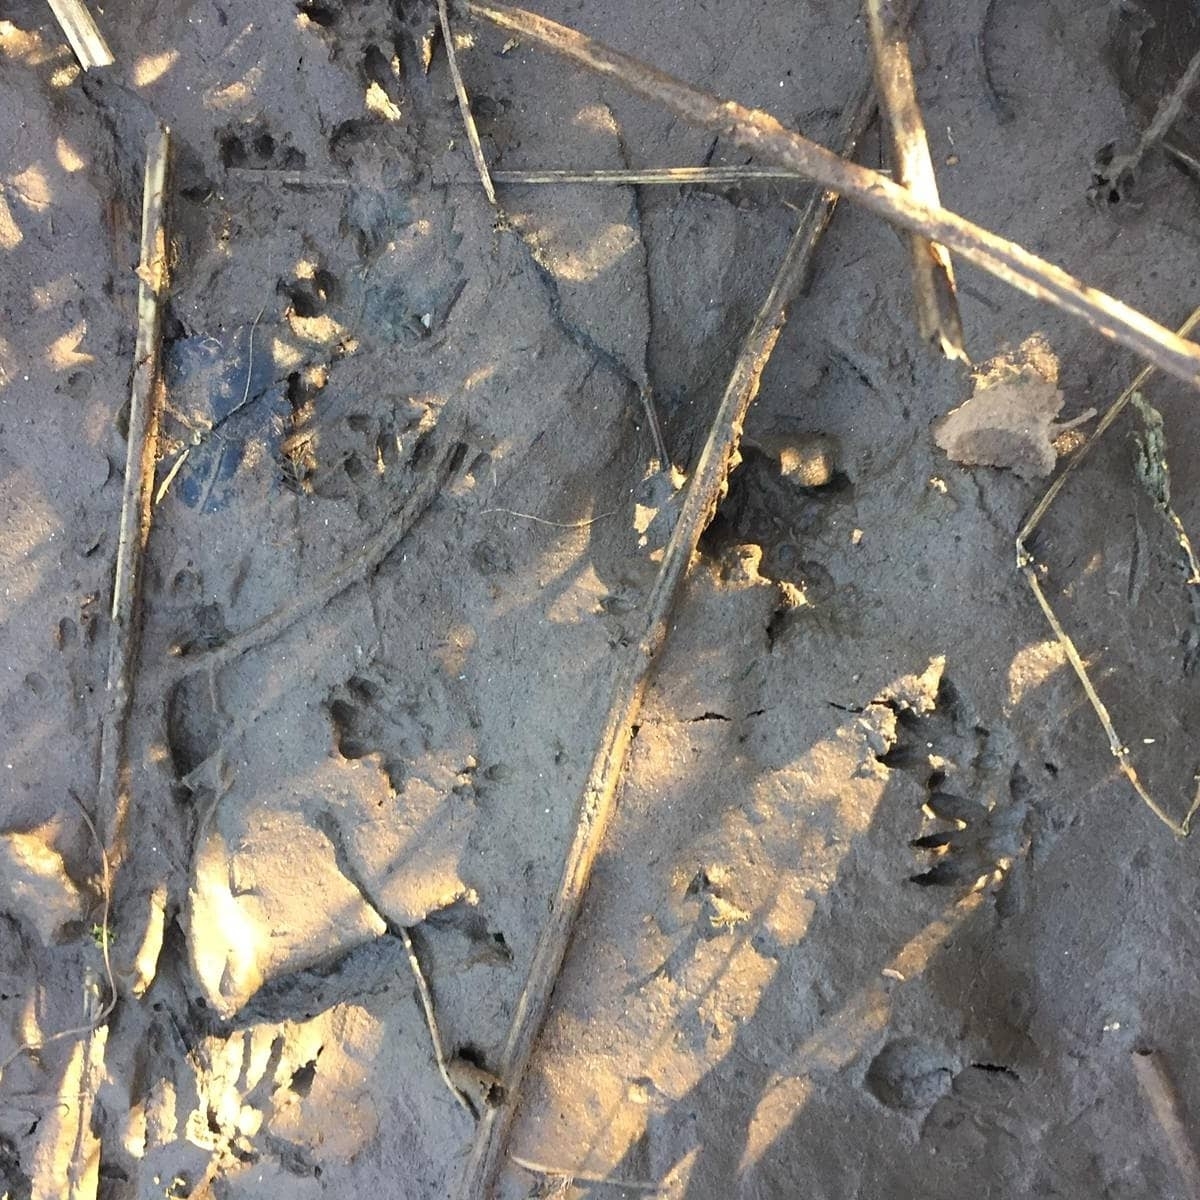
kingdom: Animalia
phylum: Chordata
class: Mammalia
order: Rodentia
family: Cricetidae
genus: Arvicola
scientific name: Arvicola amphibius
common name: European water vole
